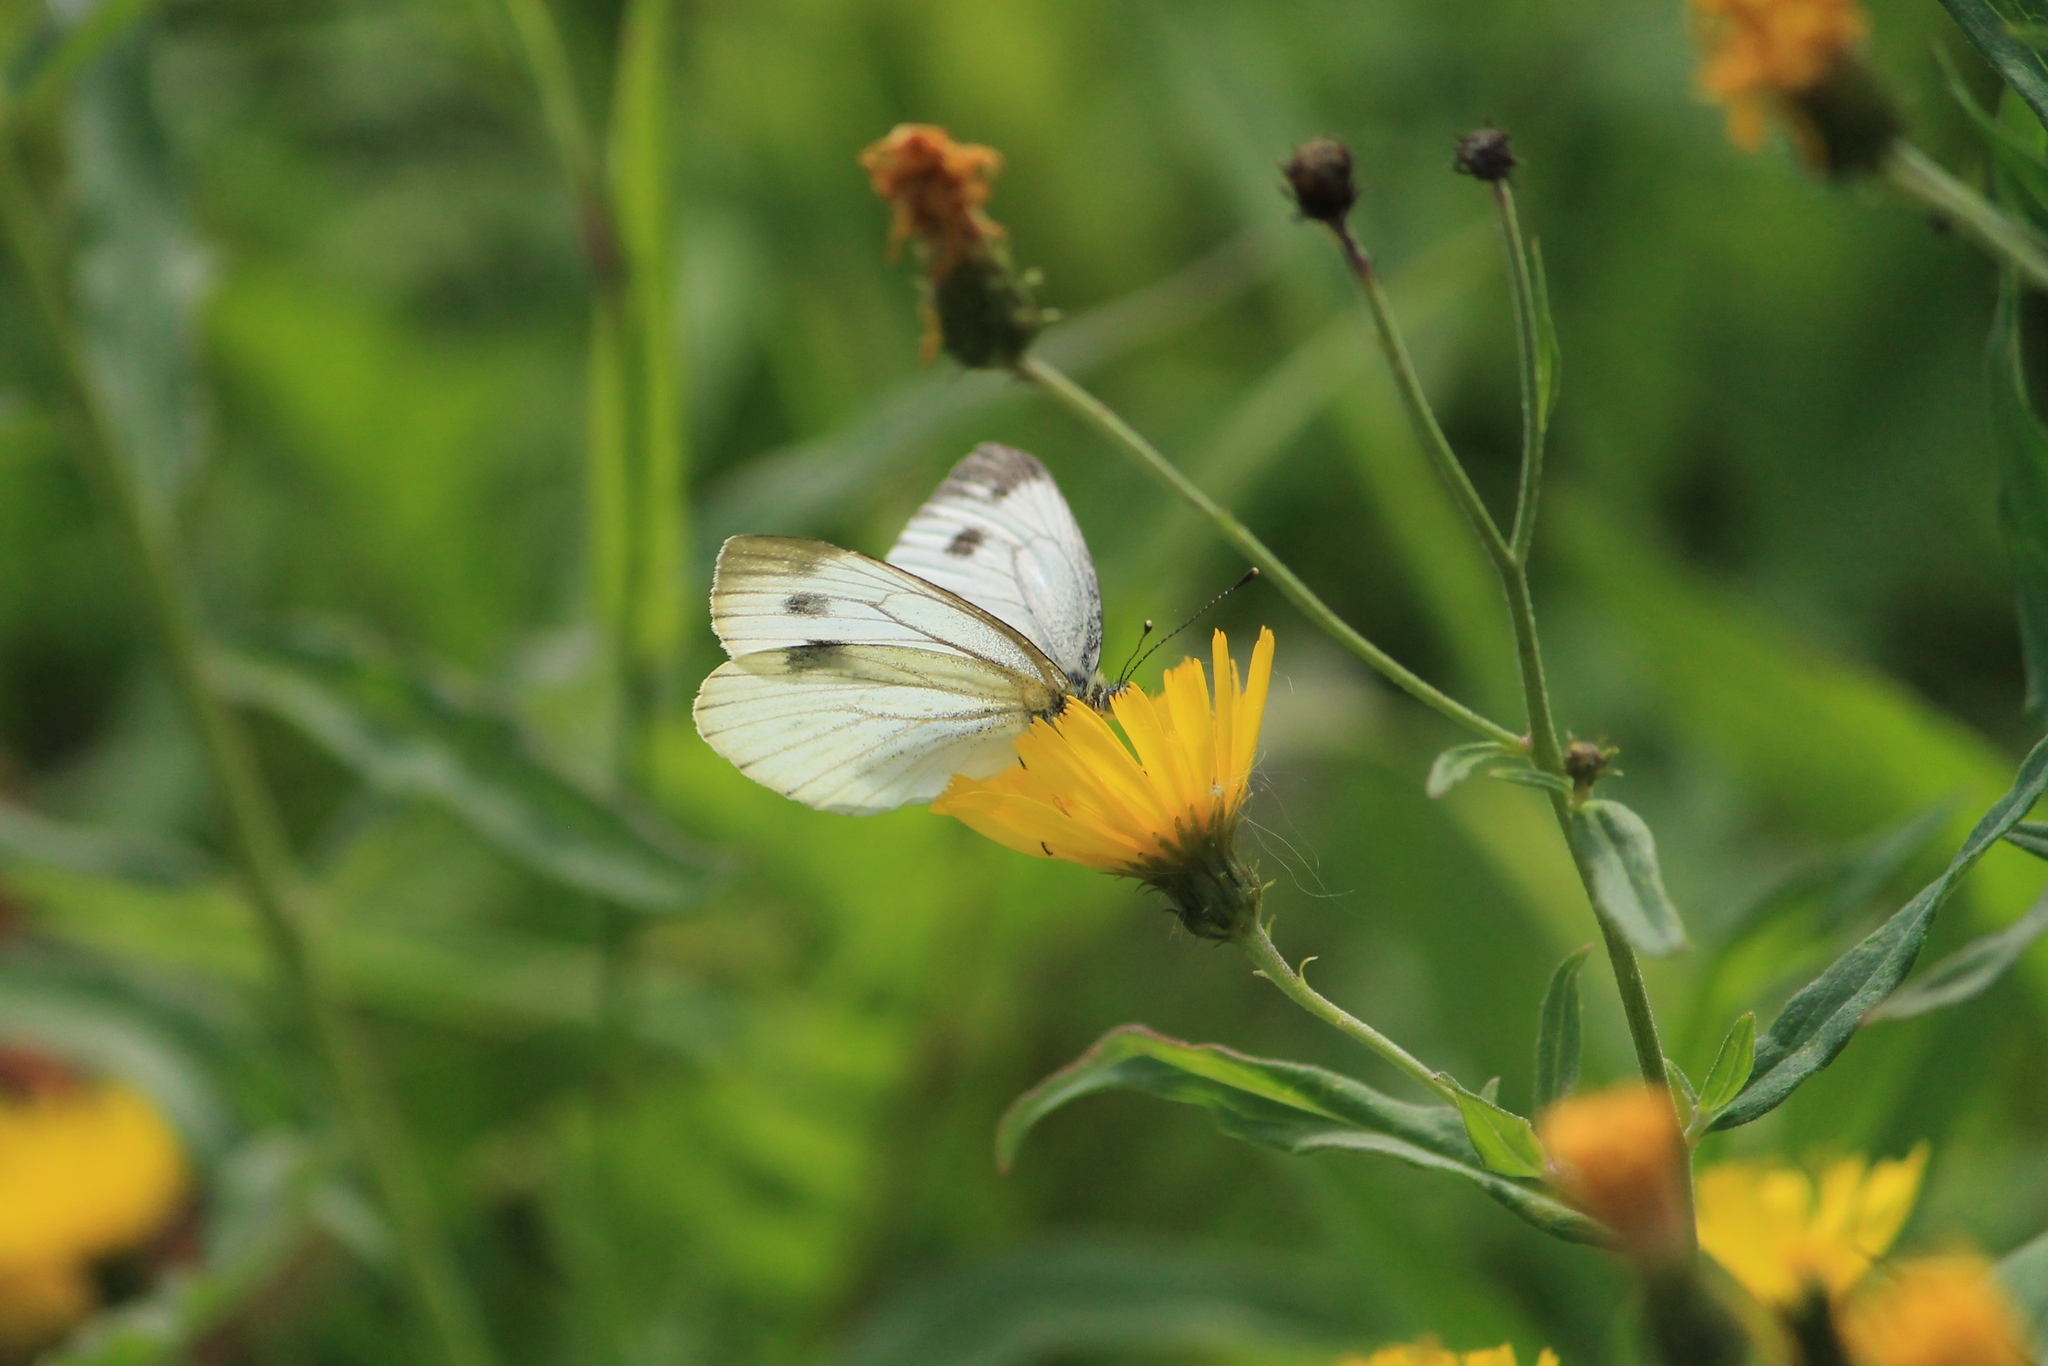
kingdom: Animalia
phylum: Arthropoda
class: Insecta
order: Lepidoptera
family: Pieridae
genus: Pieris
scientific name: Pieris napi
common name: Green-veined white
